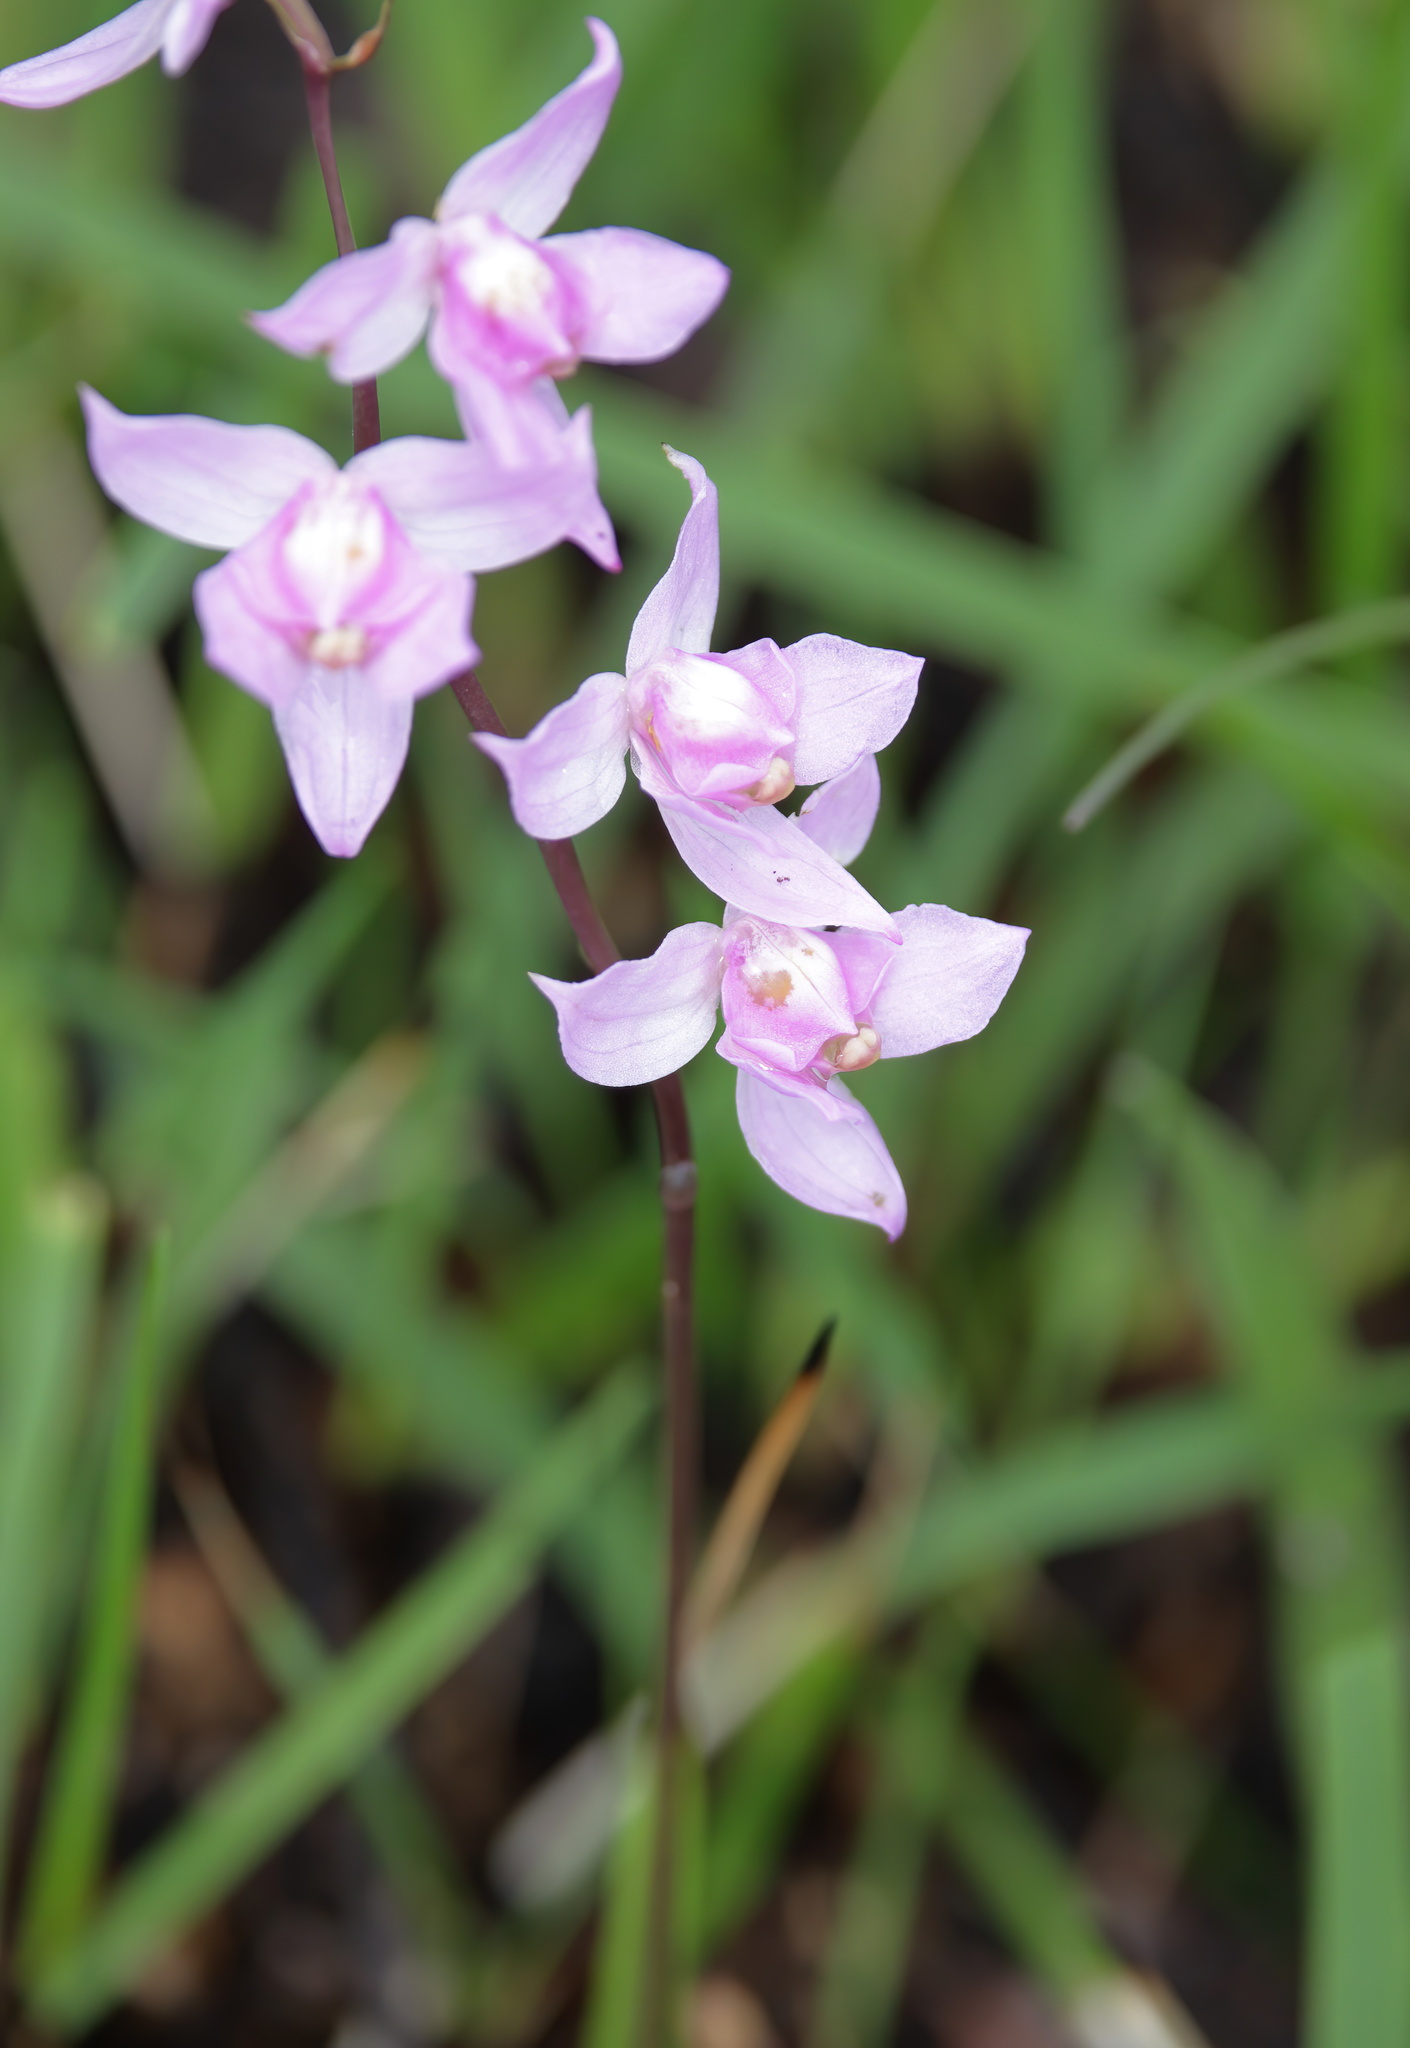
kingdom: Plantae
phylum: Tracheophyta
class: Liliopsida
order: Asparagales
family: Orchidaceae
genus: Calopogon
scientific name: Calopogon multiflorus
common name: Many-flowered grass-pink orchid
